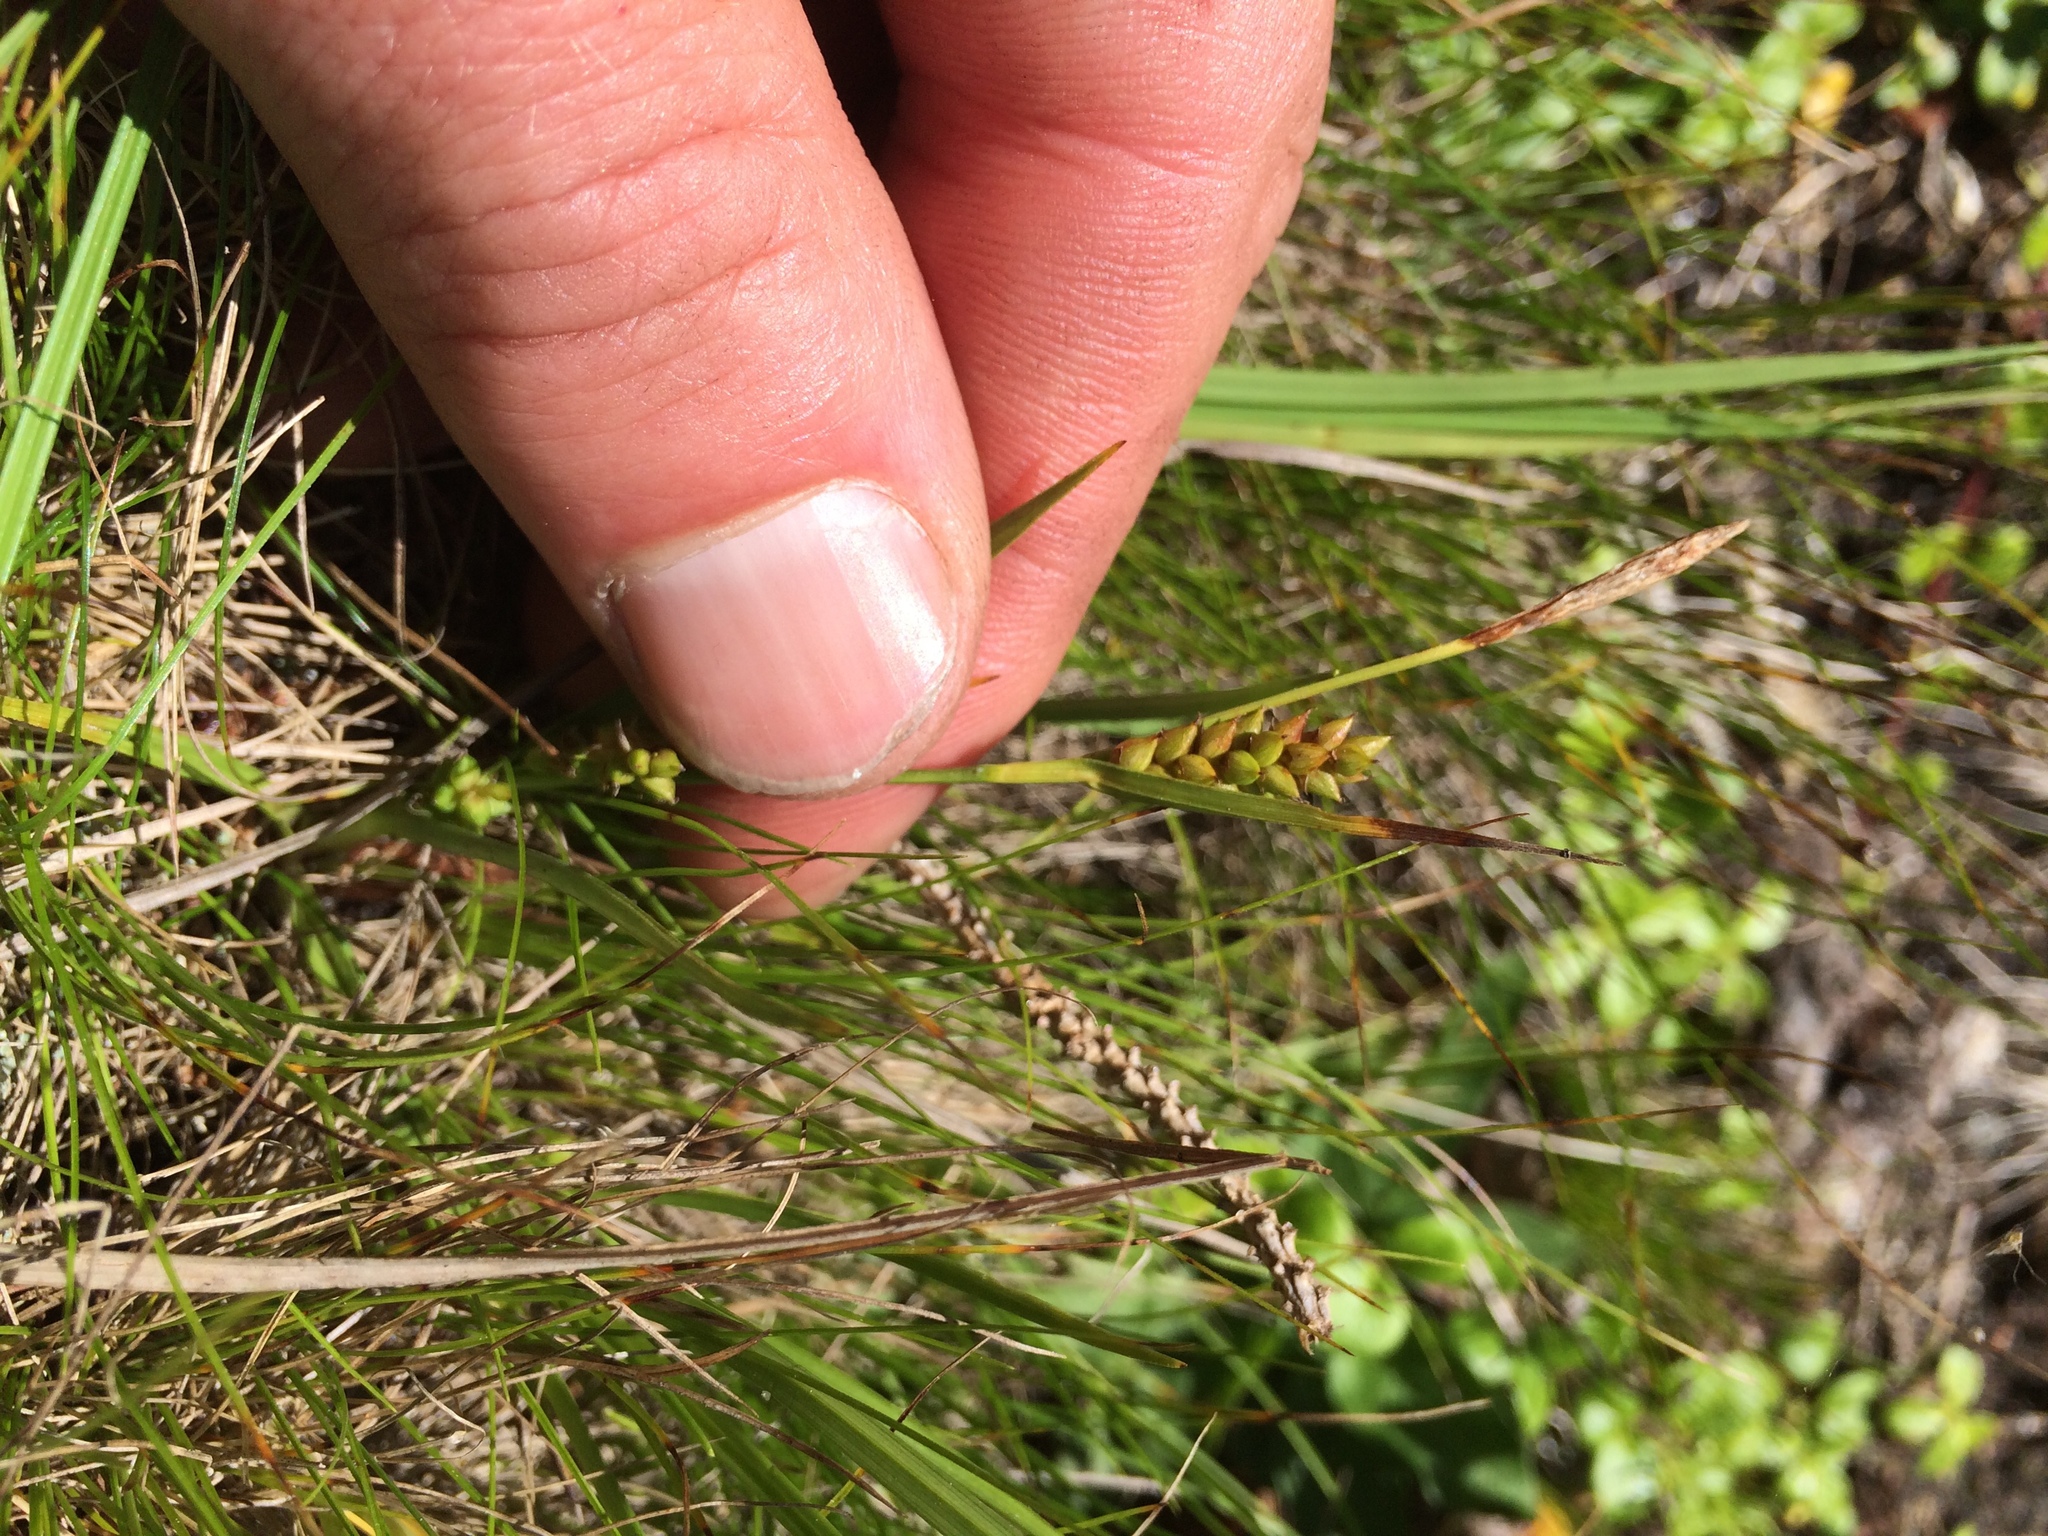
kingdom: Plantae
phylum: Tracheophyta
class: Liliopsida
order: Poales
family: Cyperaceae
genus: Carex
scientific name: Carex crawei
